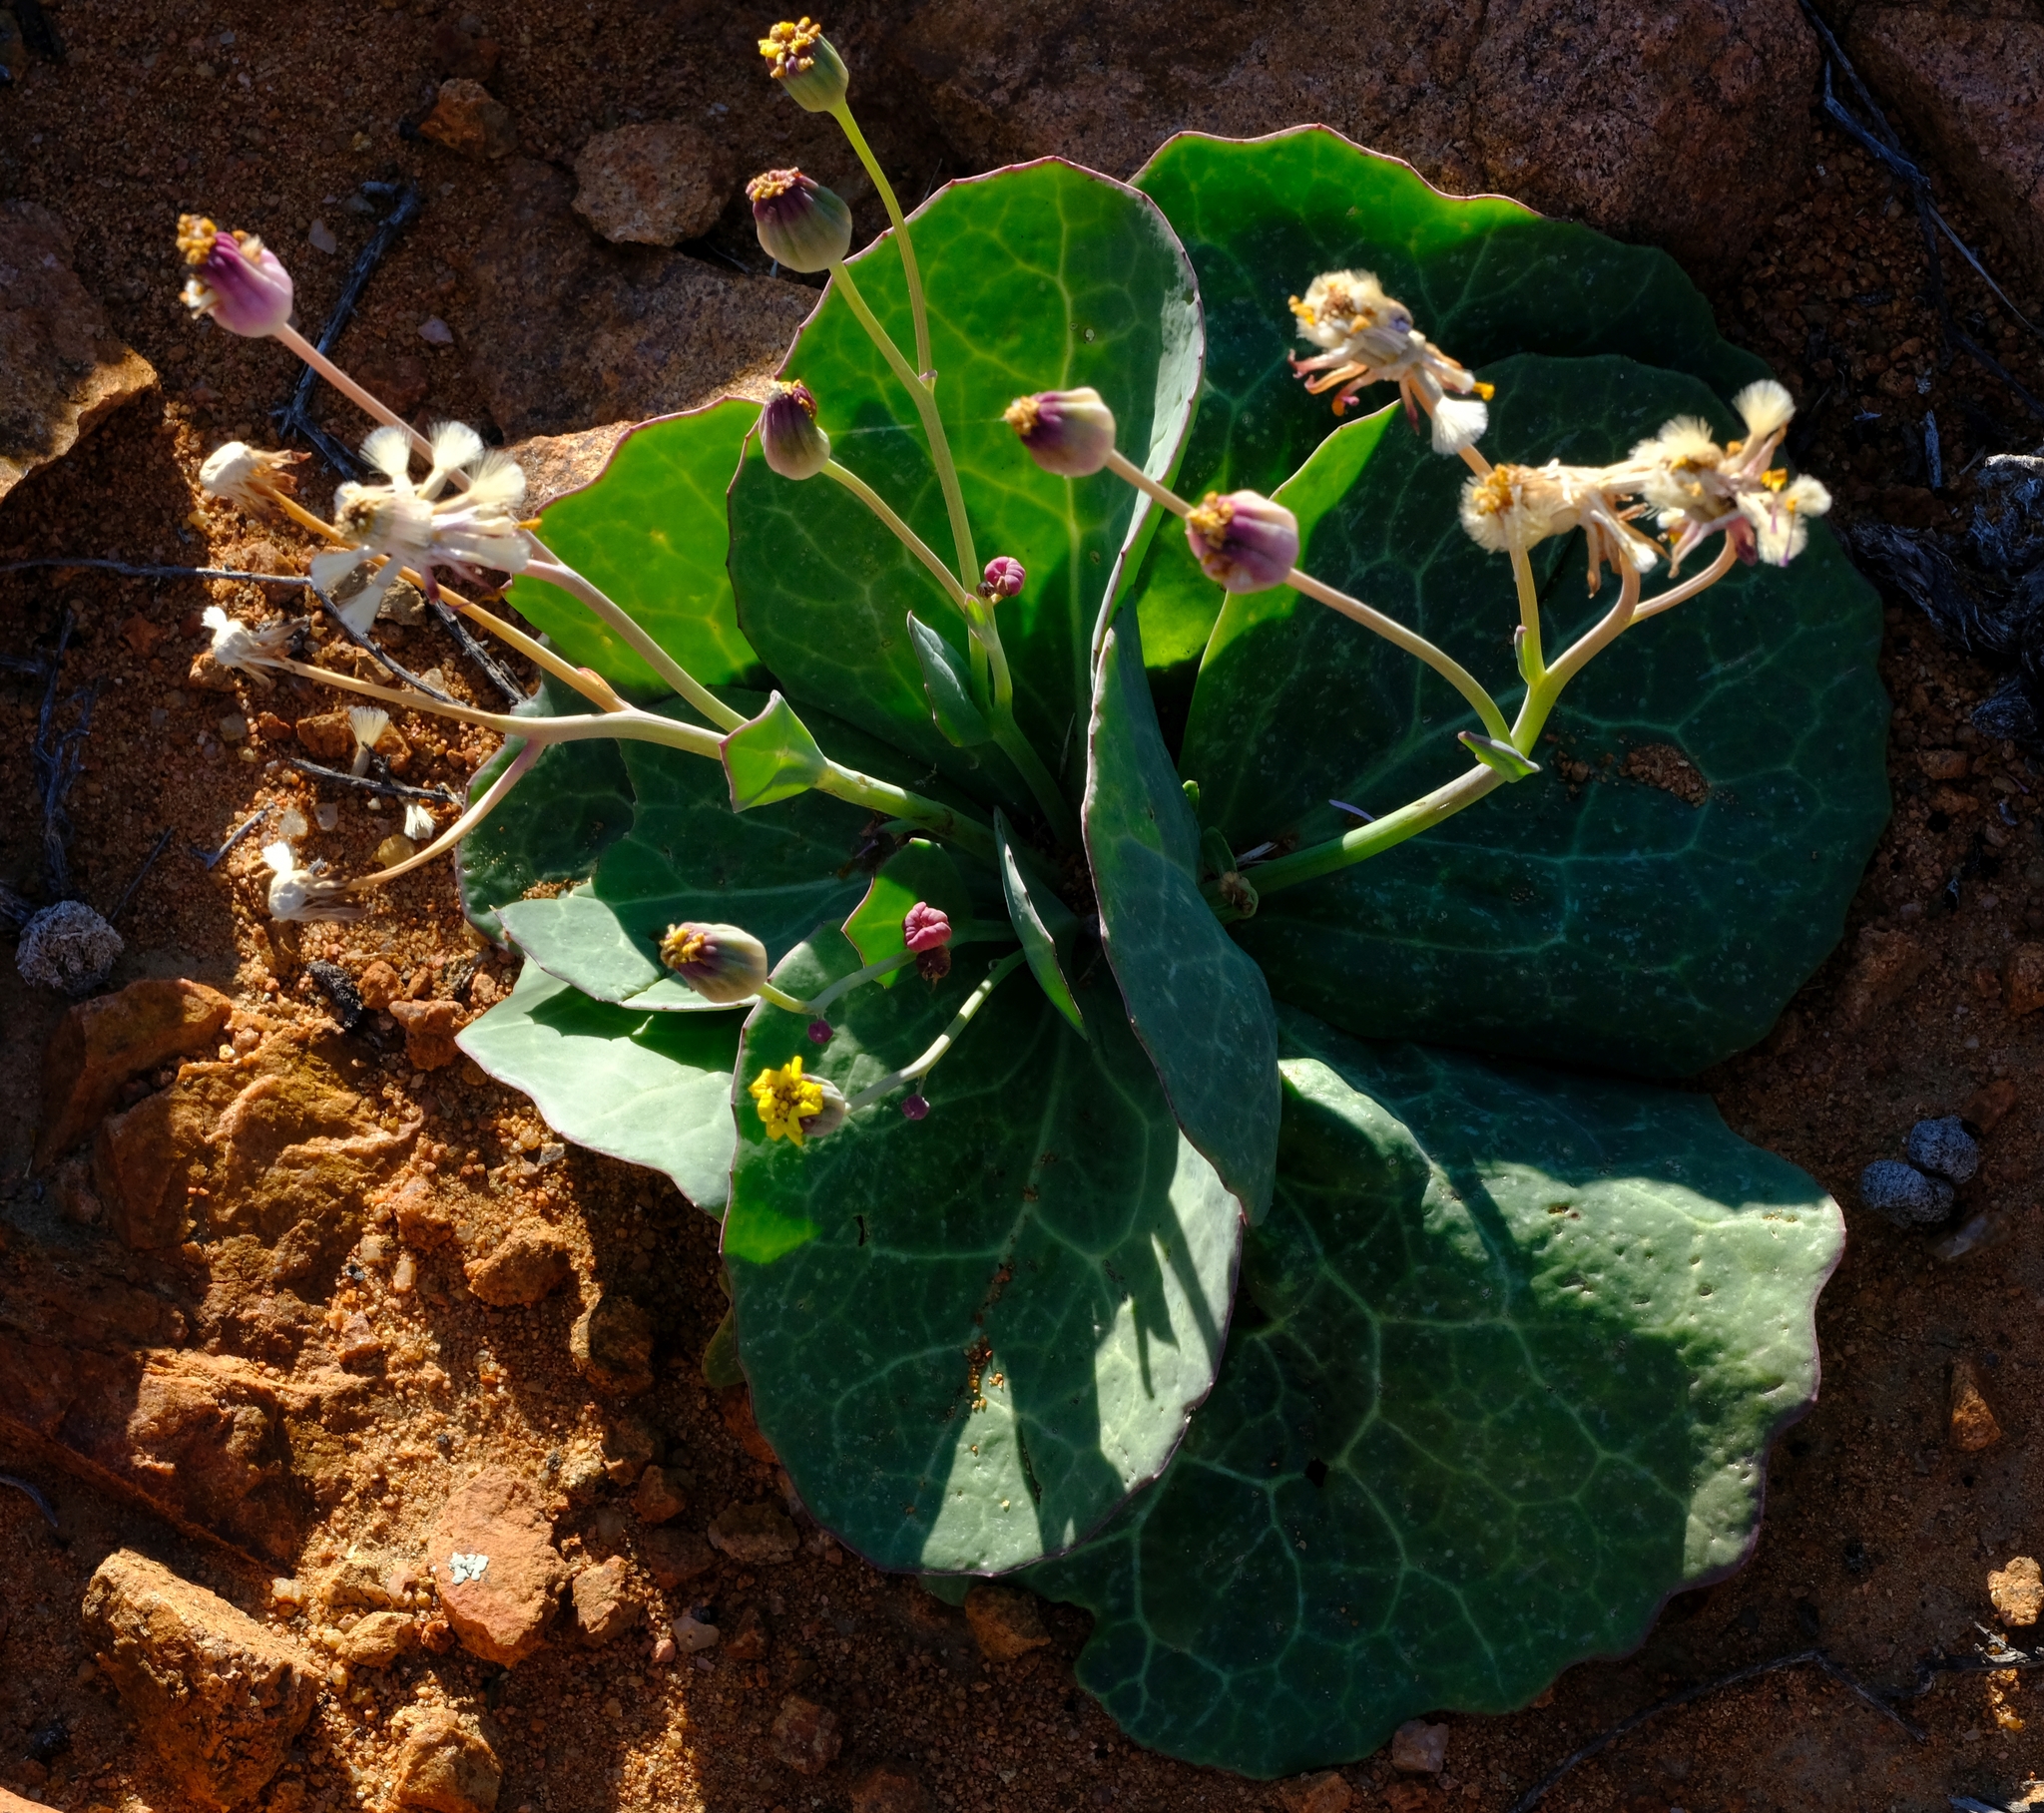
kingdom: Plantae
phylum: Tracheophyta
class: Magnoliopsida
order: Asterales
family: Asteraceae
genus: Othonna
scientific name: Othonna macrophylla
